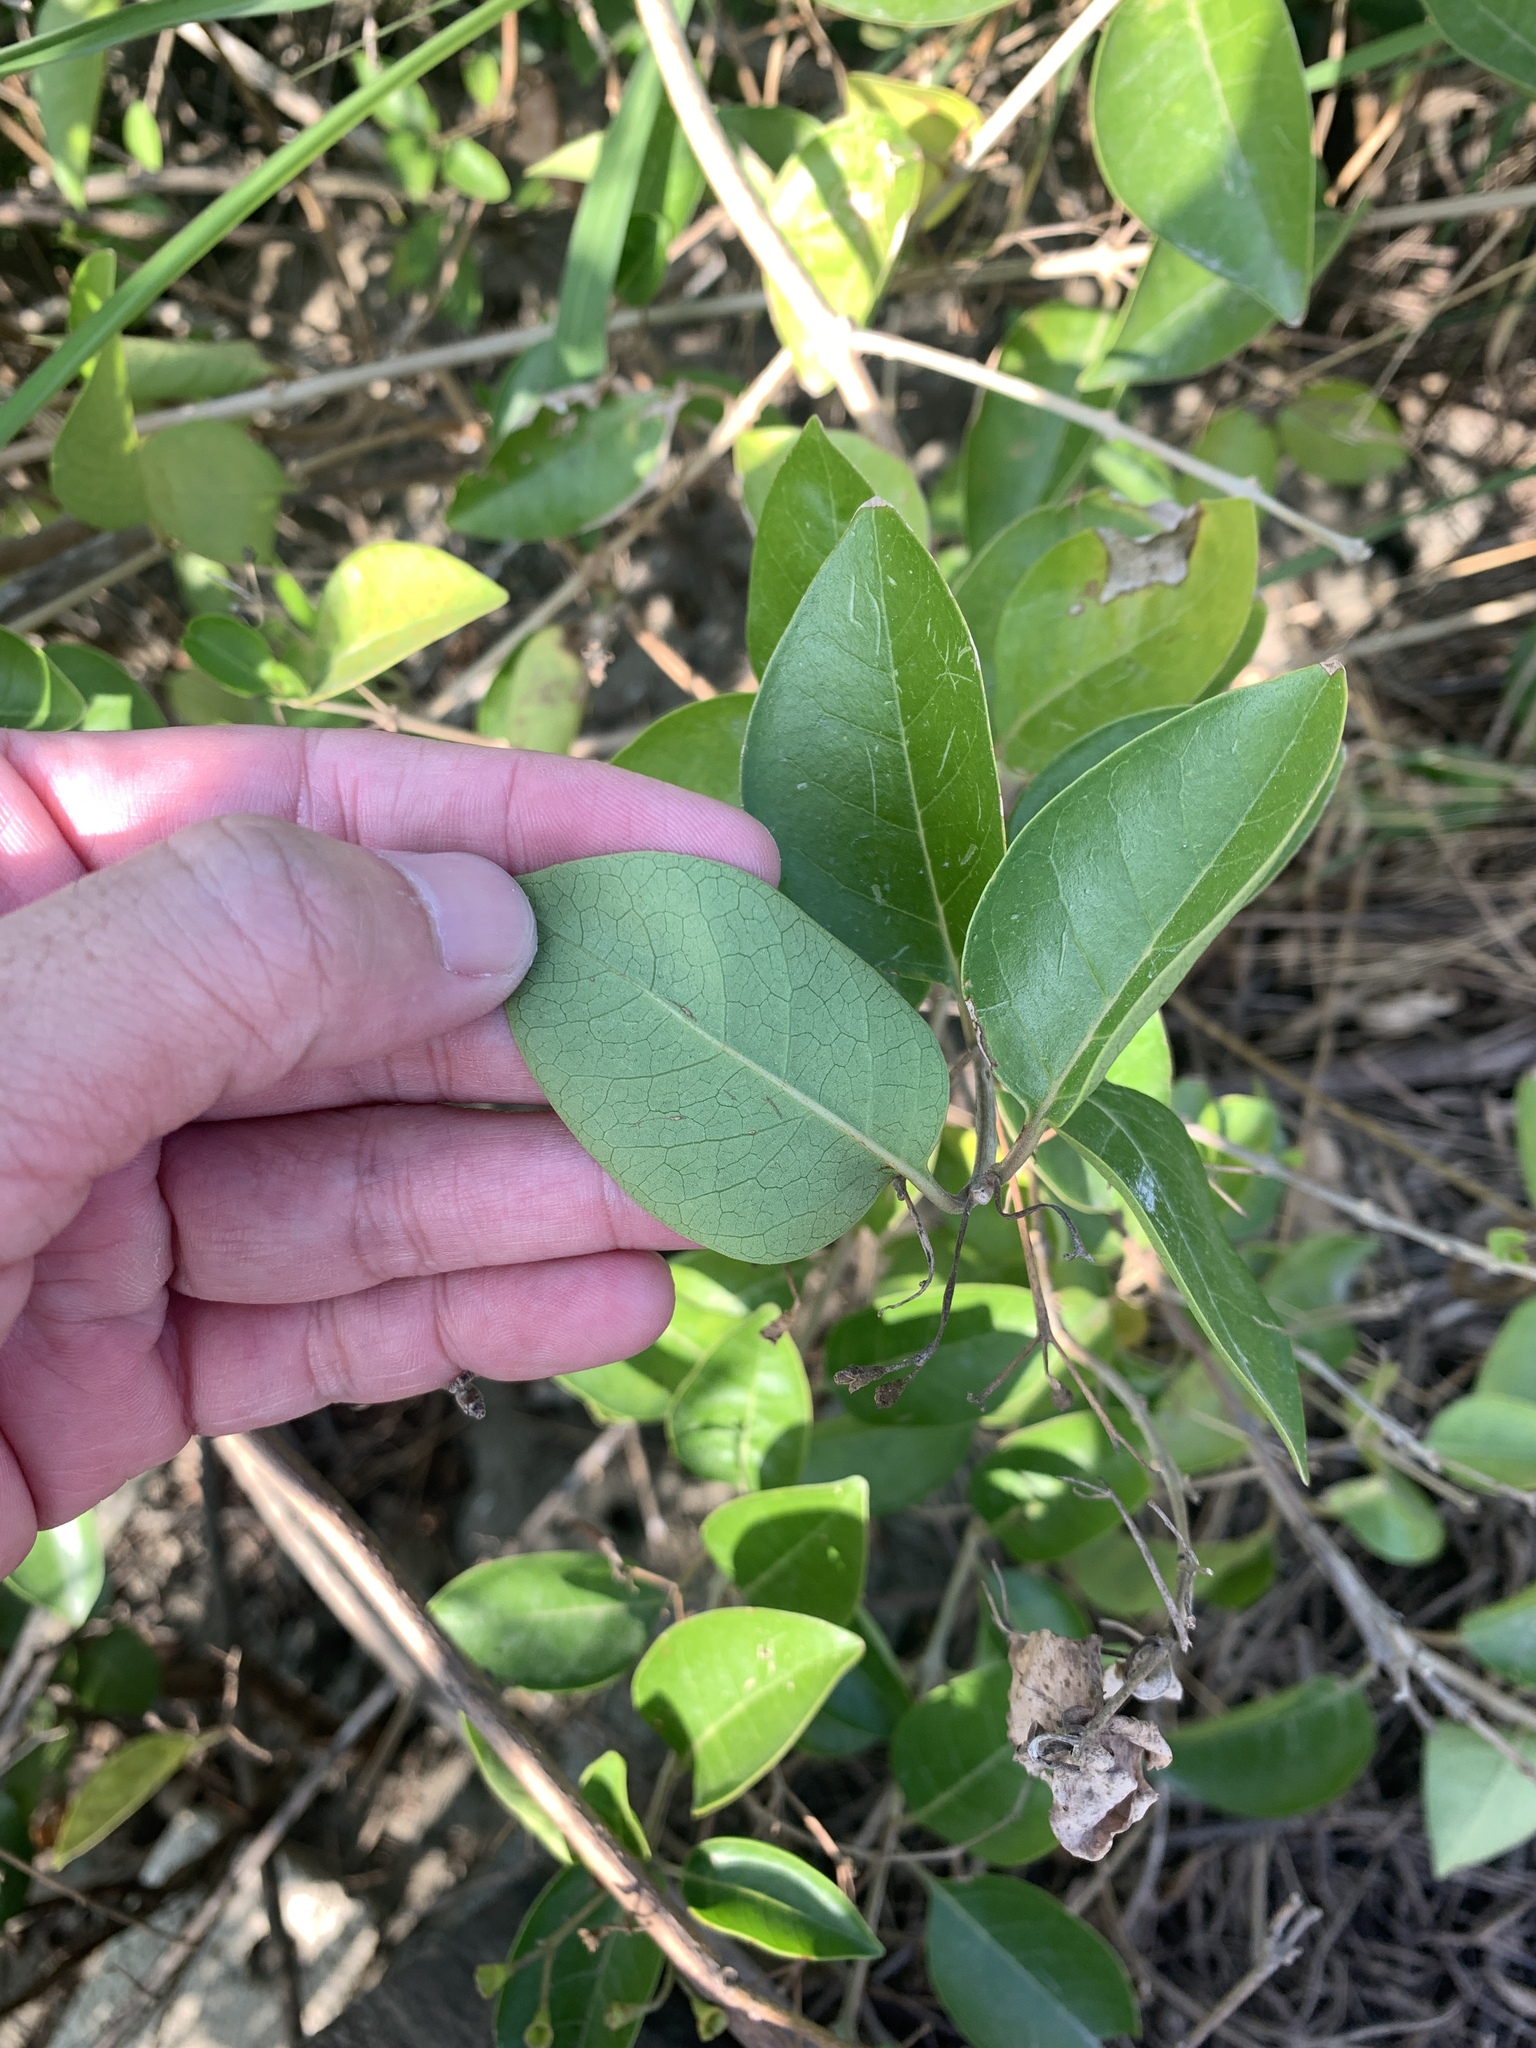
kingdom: Plantae
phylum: Tracheophyta
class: Magnoliopsida
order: Lamiales
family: Lamiaceae
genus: Volkameria
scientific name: Volkameria inermis
